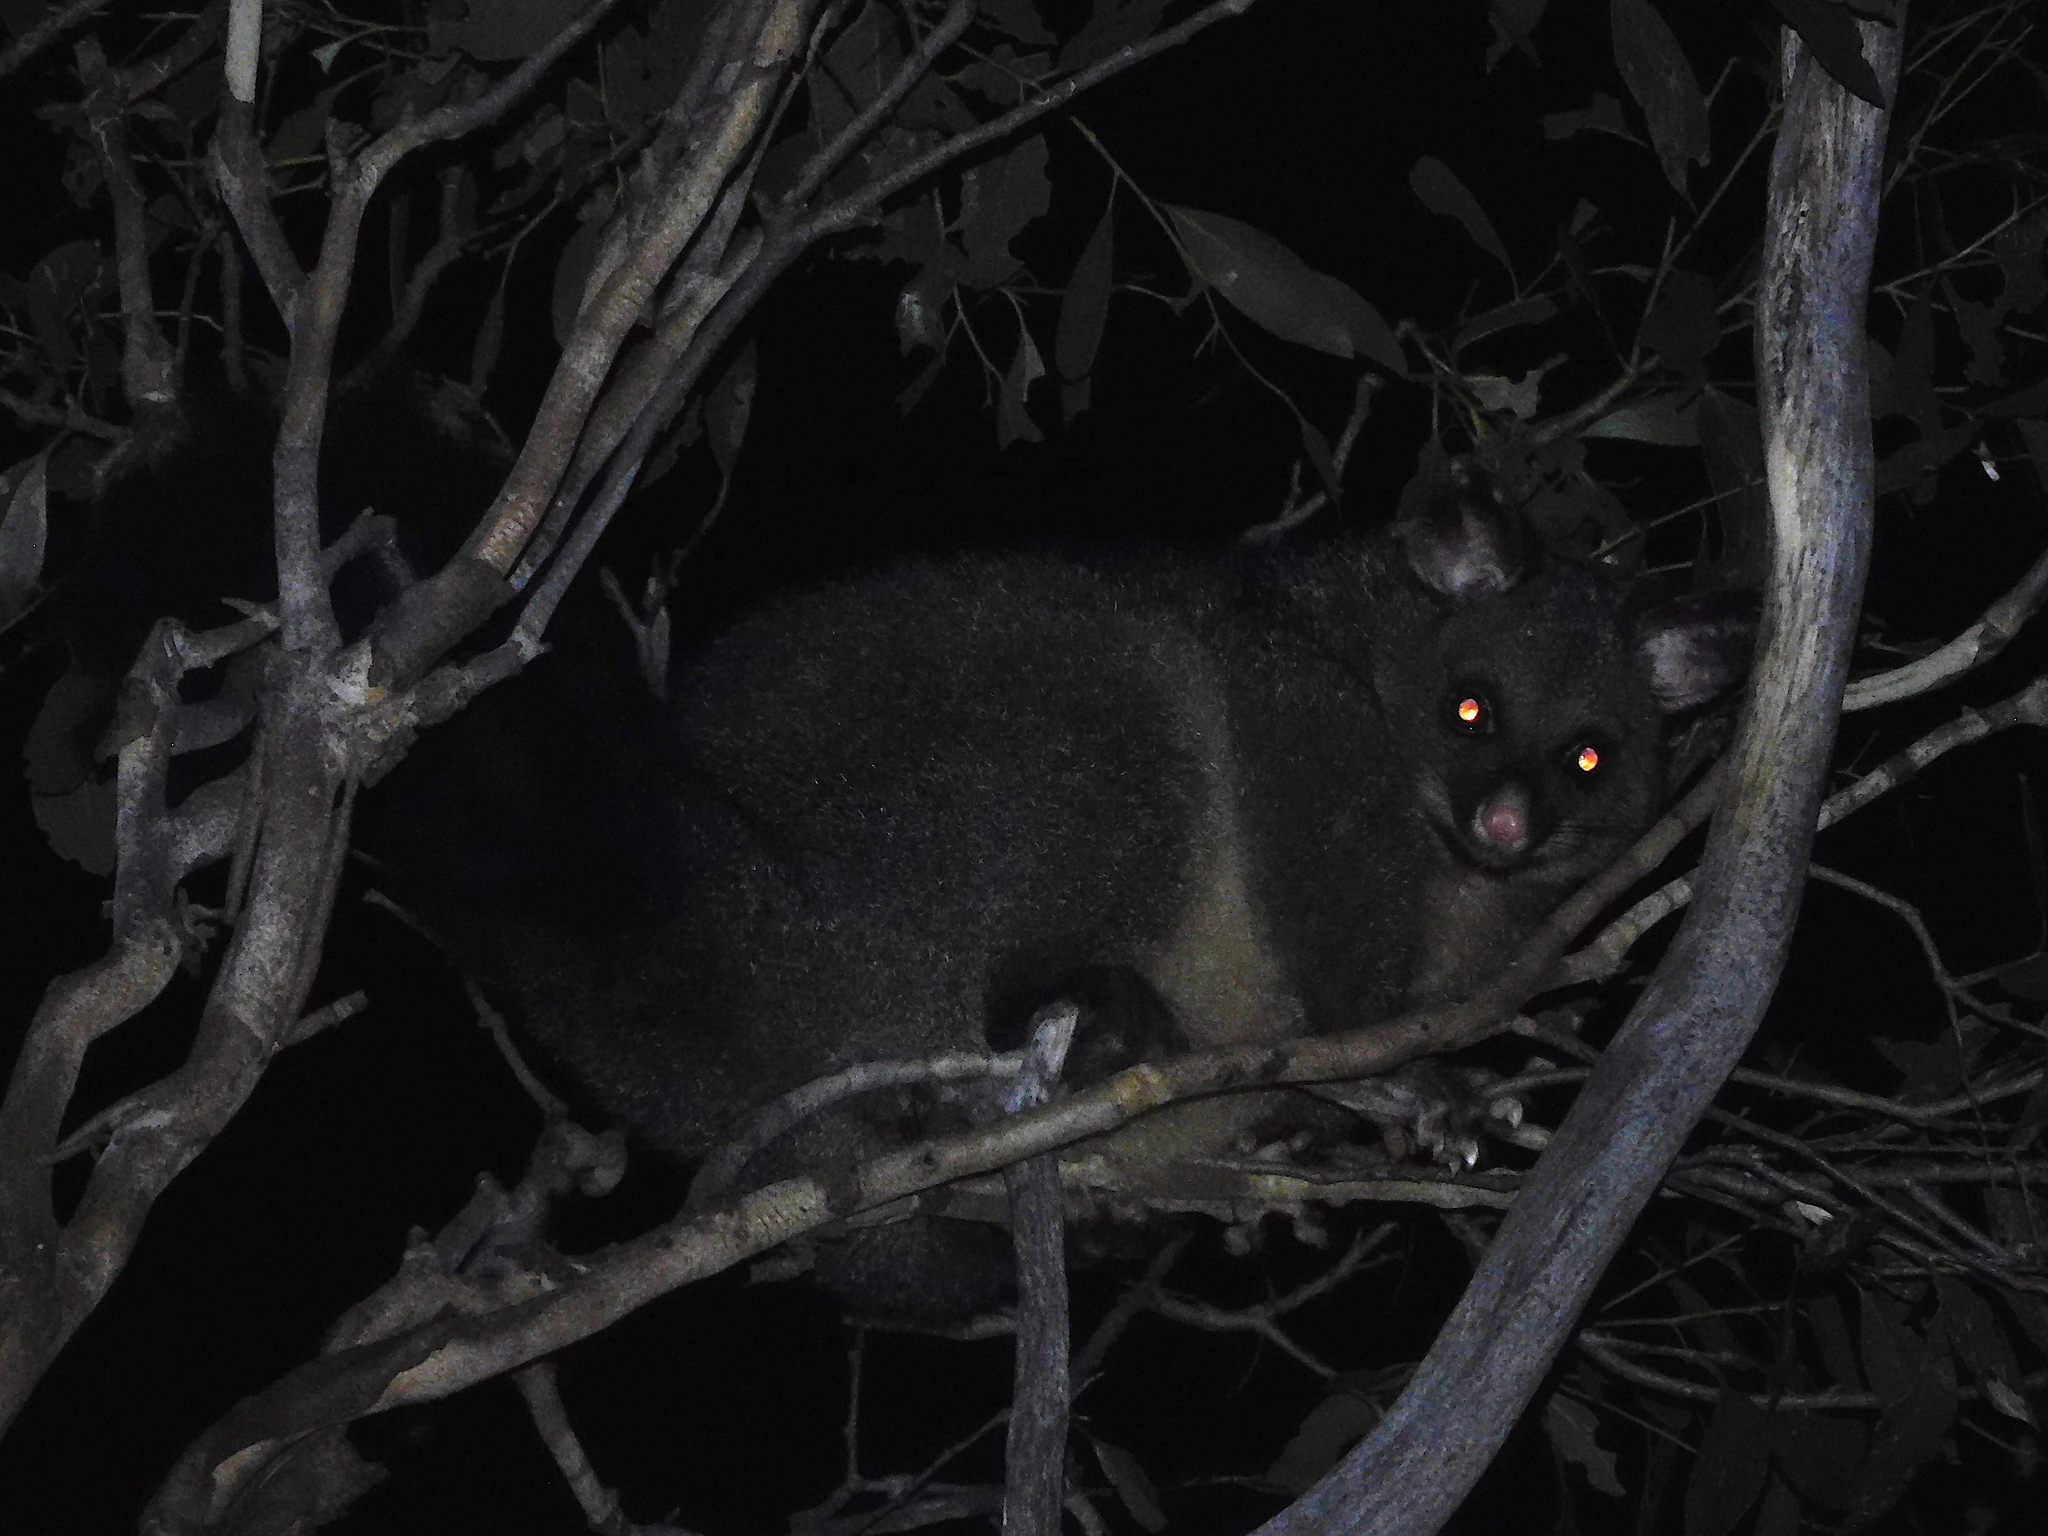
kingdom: Animalia
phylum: Chordata
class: Mammalia
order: Diprotodontia
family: Phalangeridae
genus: Trichosurus
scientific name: Trichosurus vulpecula
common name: Common brushtail
